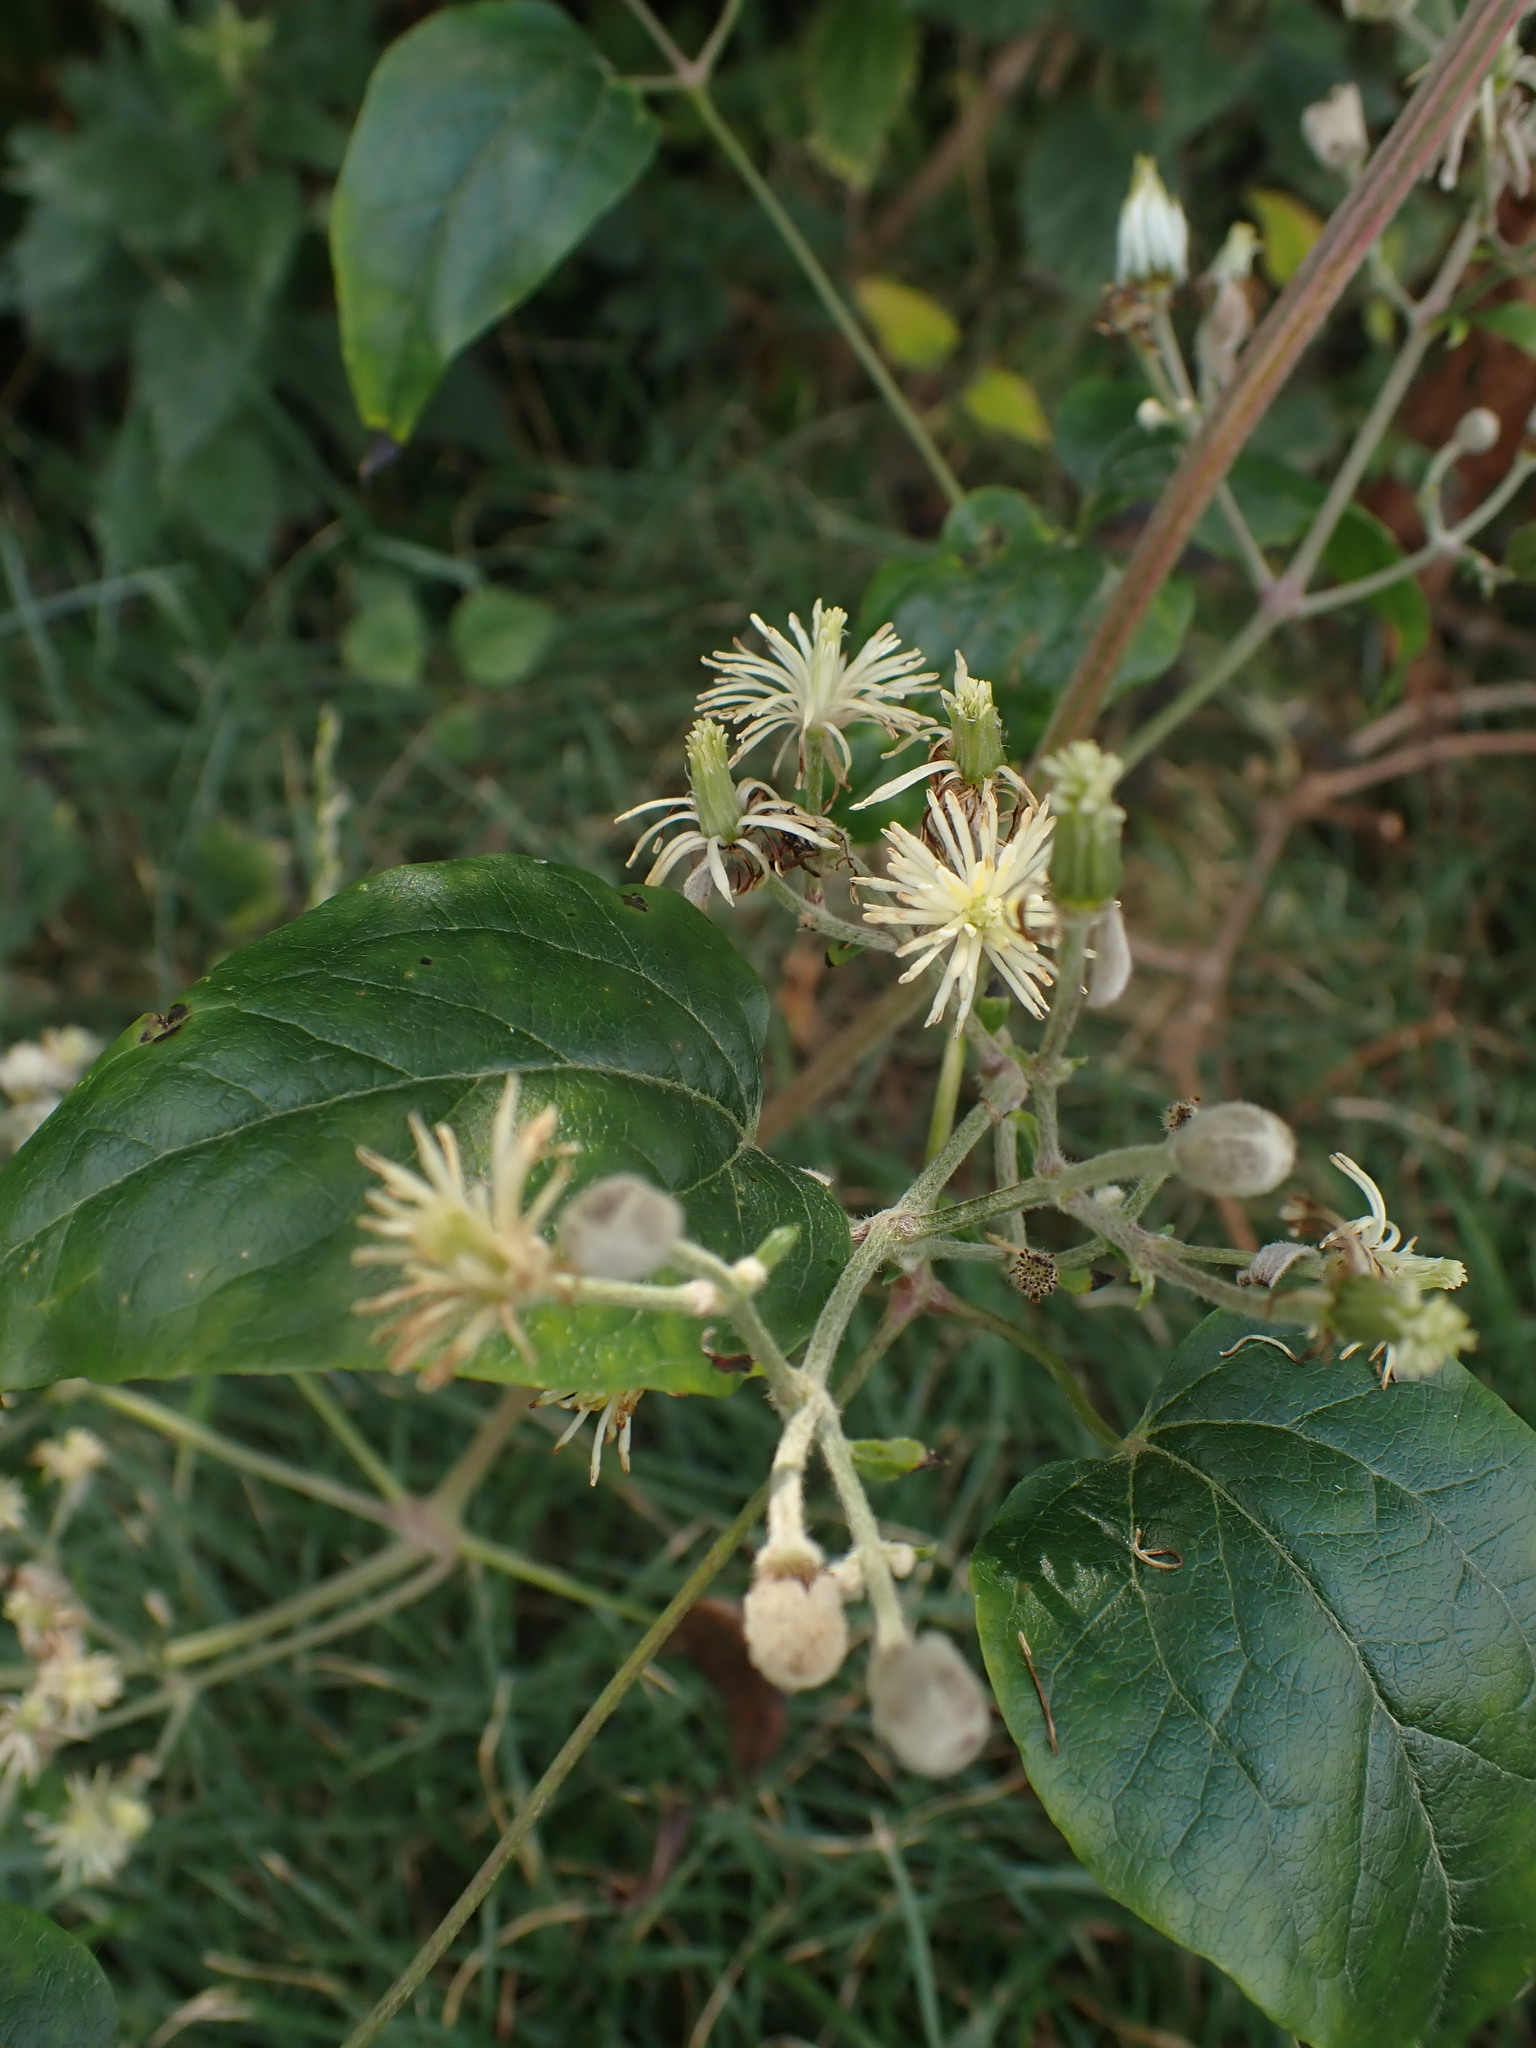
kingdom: Plantae
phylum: Tracheophyta
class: Magnoliopsida
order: Ranunculales
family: Ranunculaceae
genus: Clematis
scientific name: Clematis vitalba
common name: Evergreen clematis
